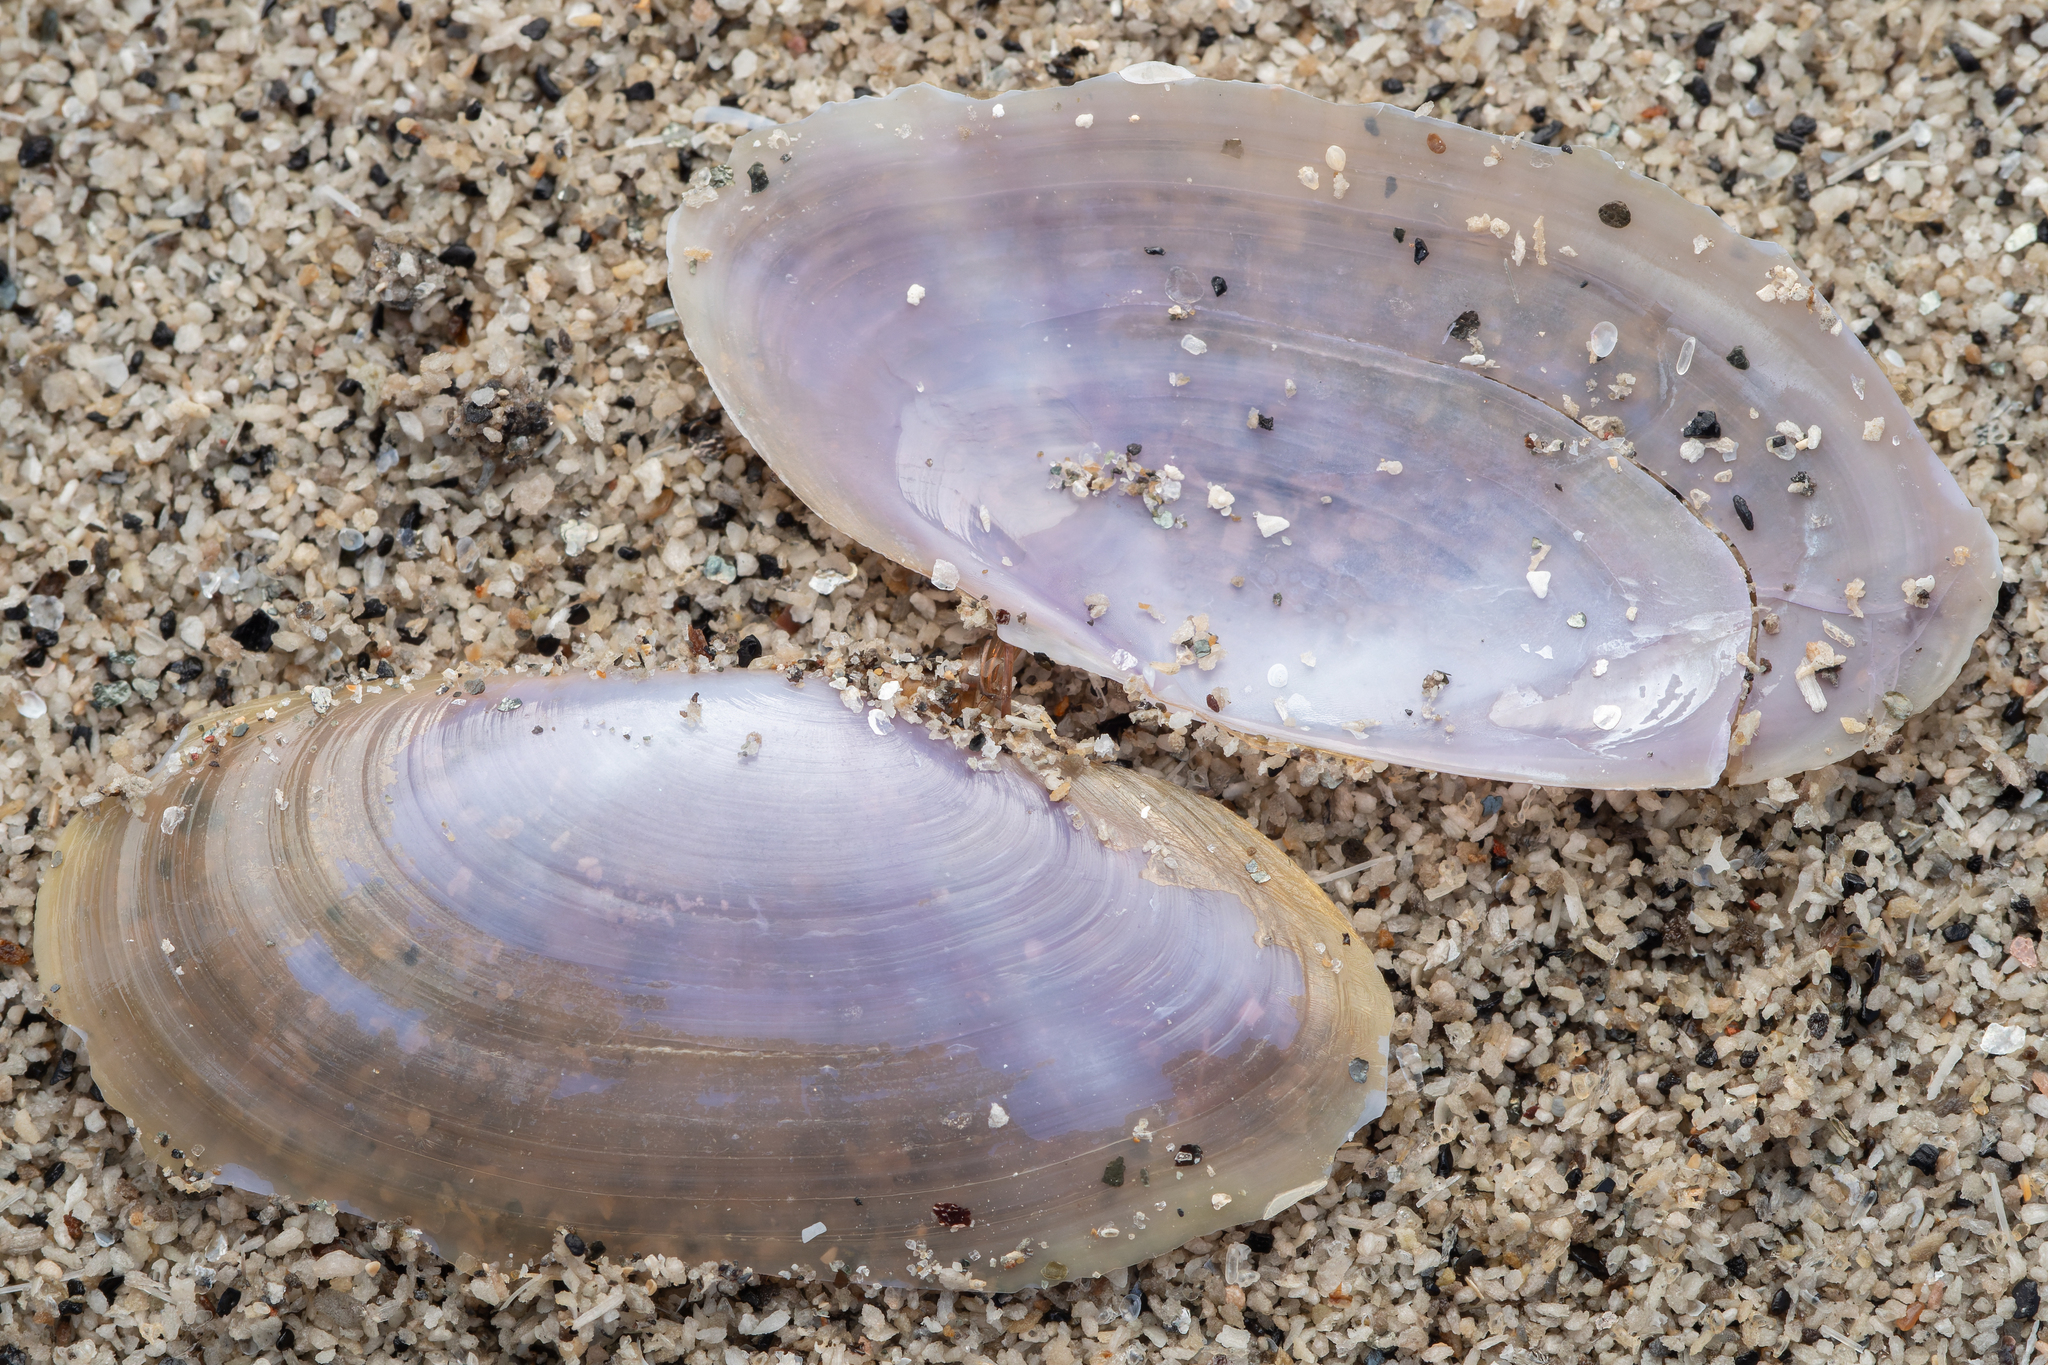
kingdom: Animalia
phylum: Mollusca
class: Bivalvia
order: Cardiida
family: Psammobiidae
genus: Hiatula
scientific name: Hiatula nitida
